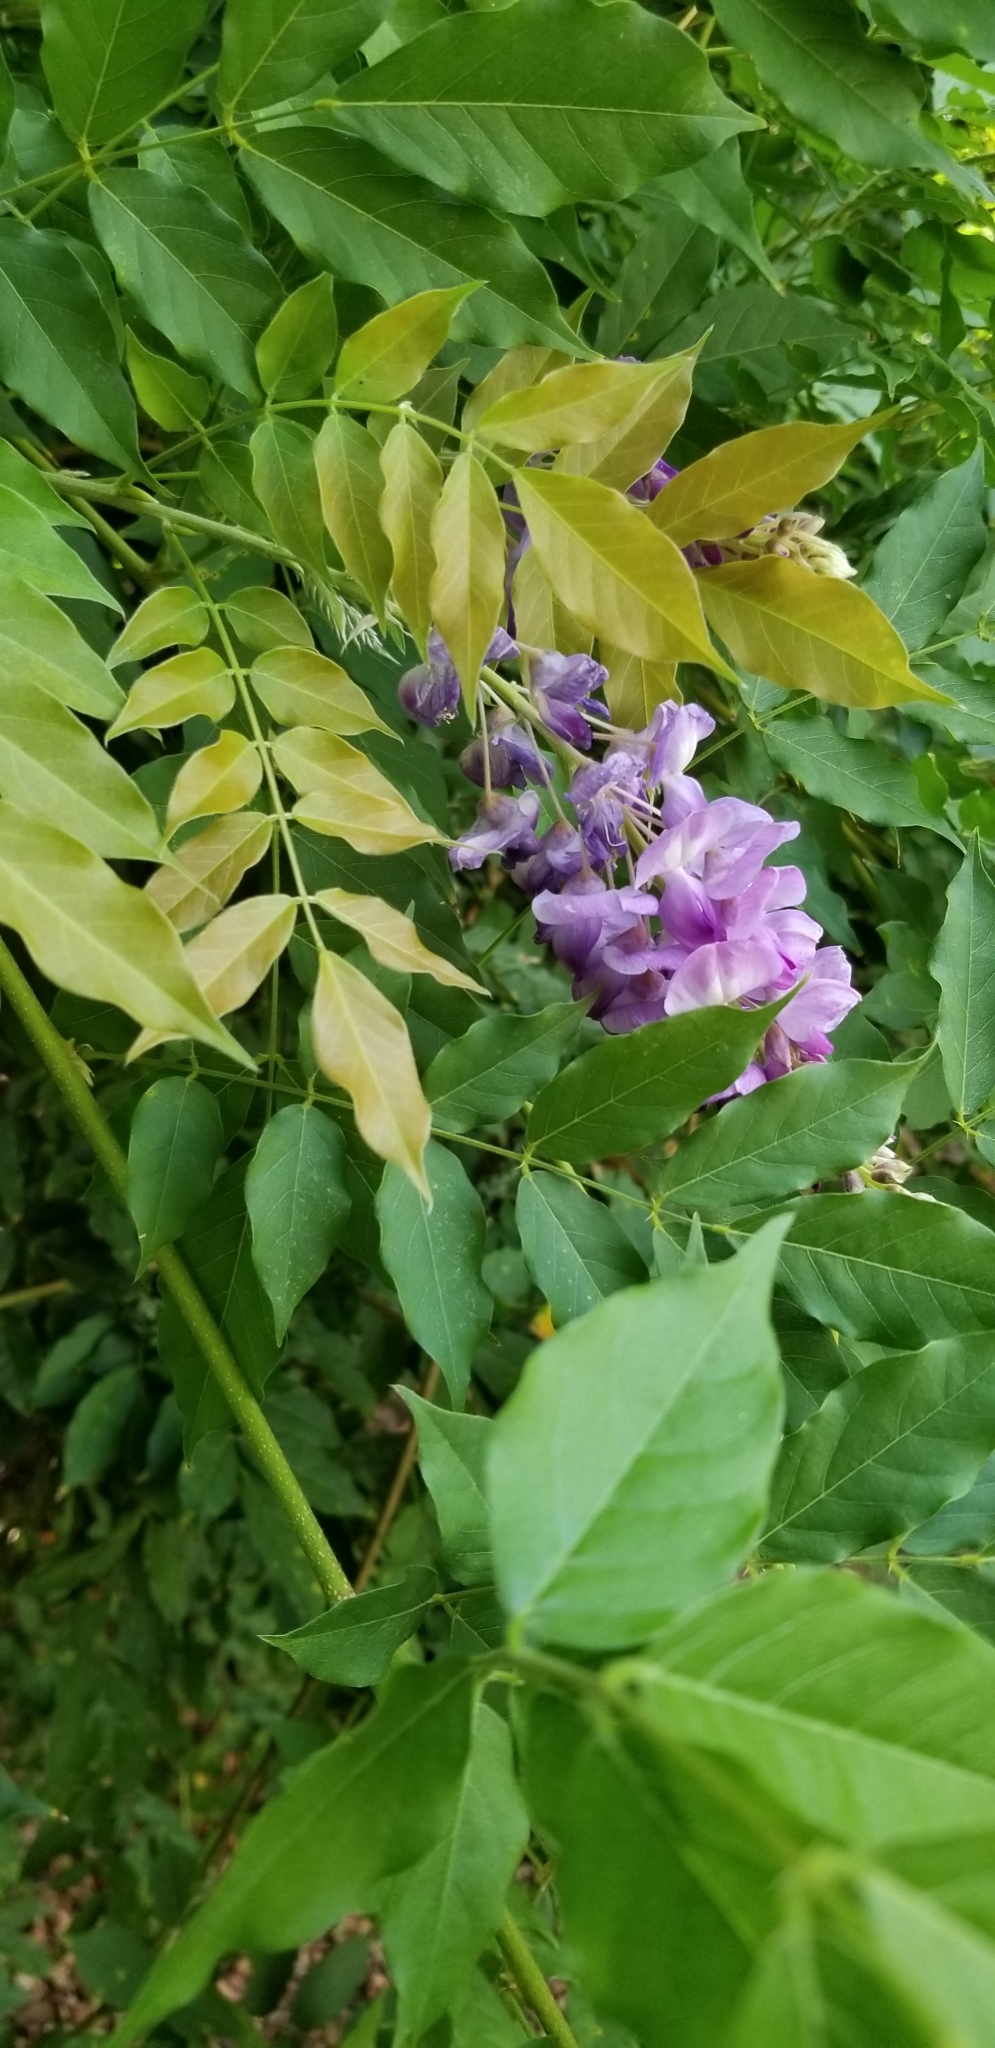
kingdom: Plantae
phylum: Tracheophyta
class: Magnoliopsida
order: Fabales
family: Fabaceae
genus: Wisteria
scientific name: Wisteria sinensis
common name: Chinese wisteria
